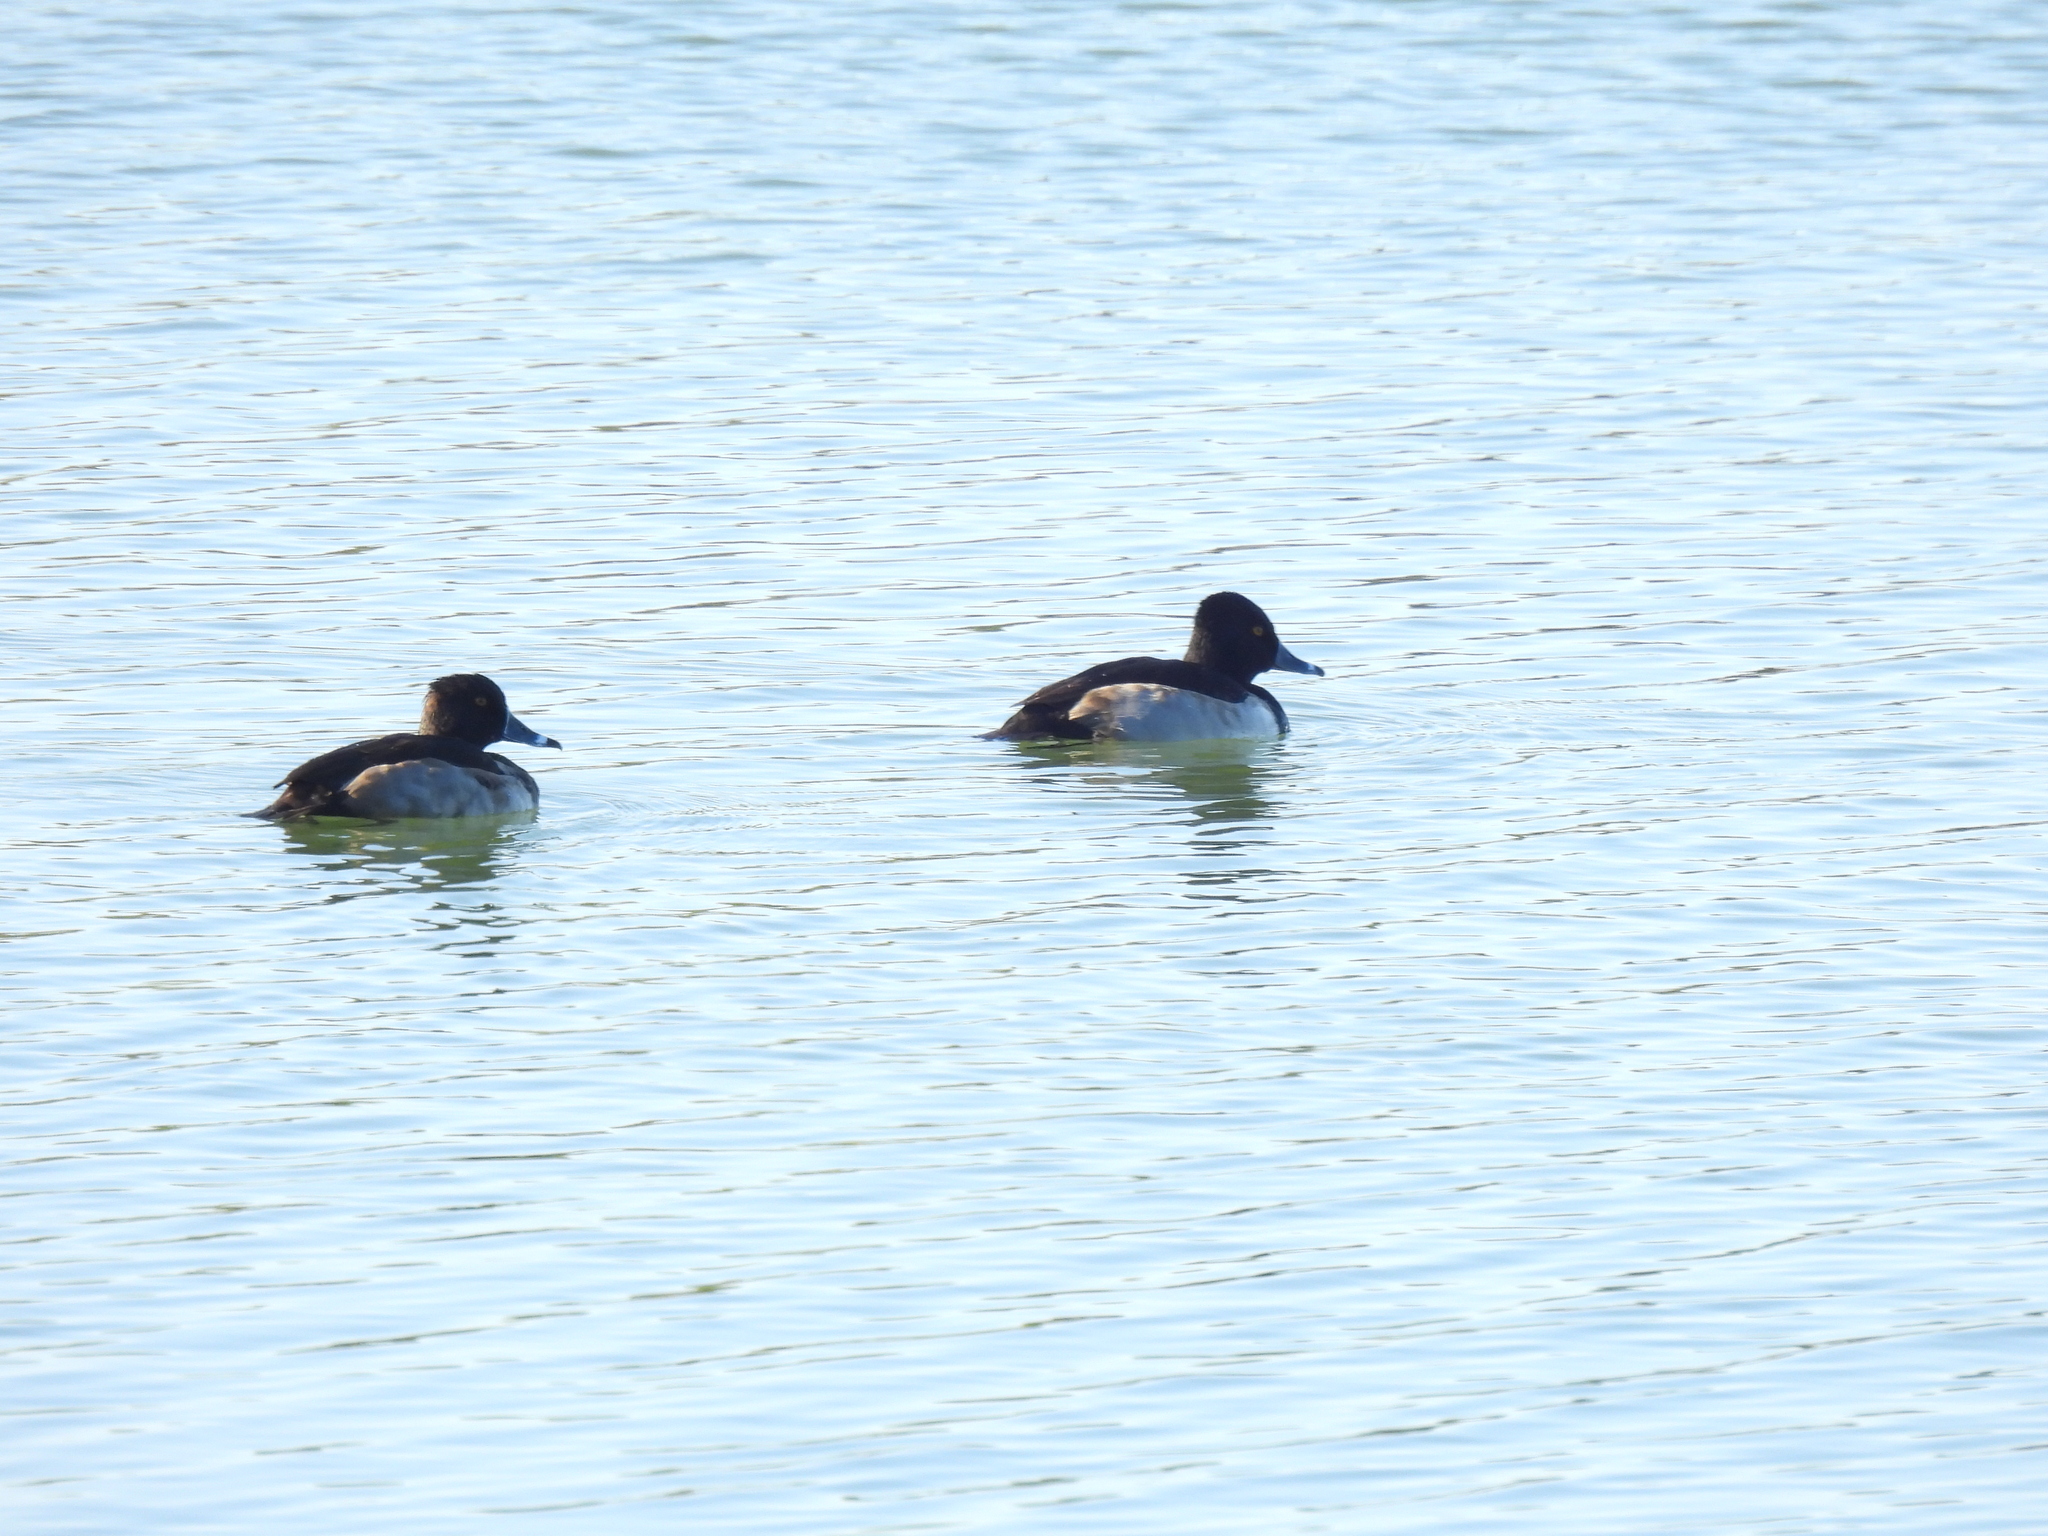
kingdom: Animalia
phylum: Chordata
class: Aves
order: Anseriformes
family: Anatidae
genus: Aythya
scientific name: Aythya collaris
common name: Ring-necked duck
